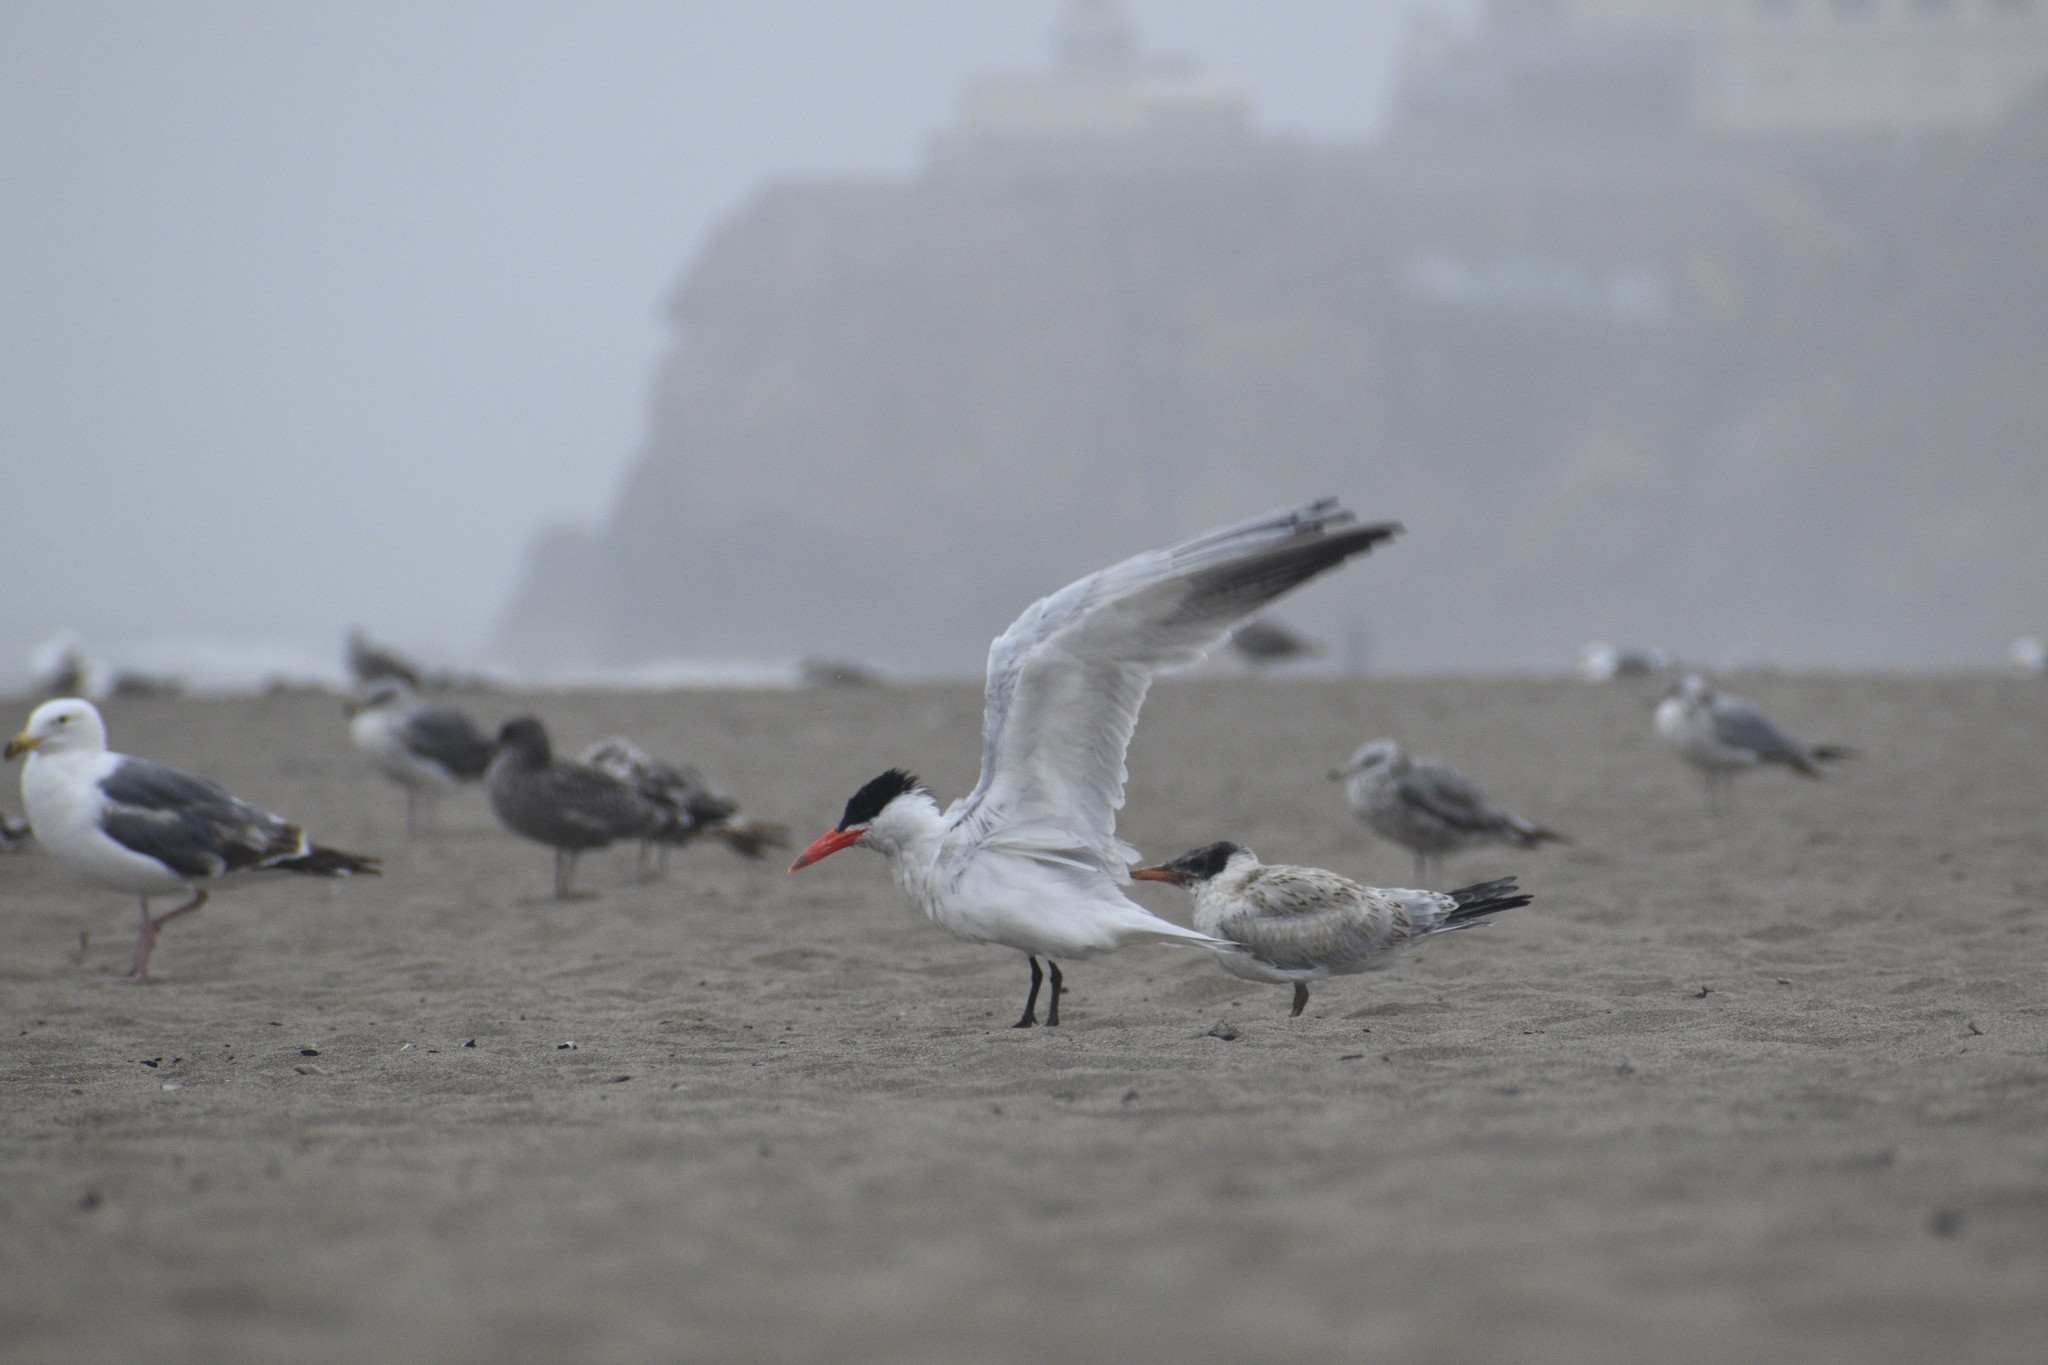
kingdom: Animalia
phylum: Chordata
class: Aves
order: Charadriiformes
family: Laridae
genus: Hydroprogne
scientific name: Hydroprogne caspia
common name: Caspian tern
